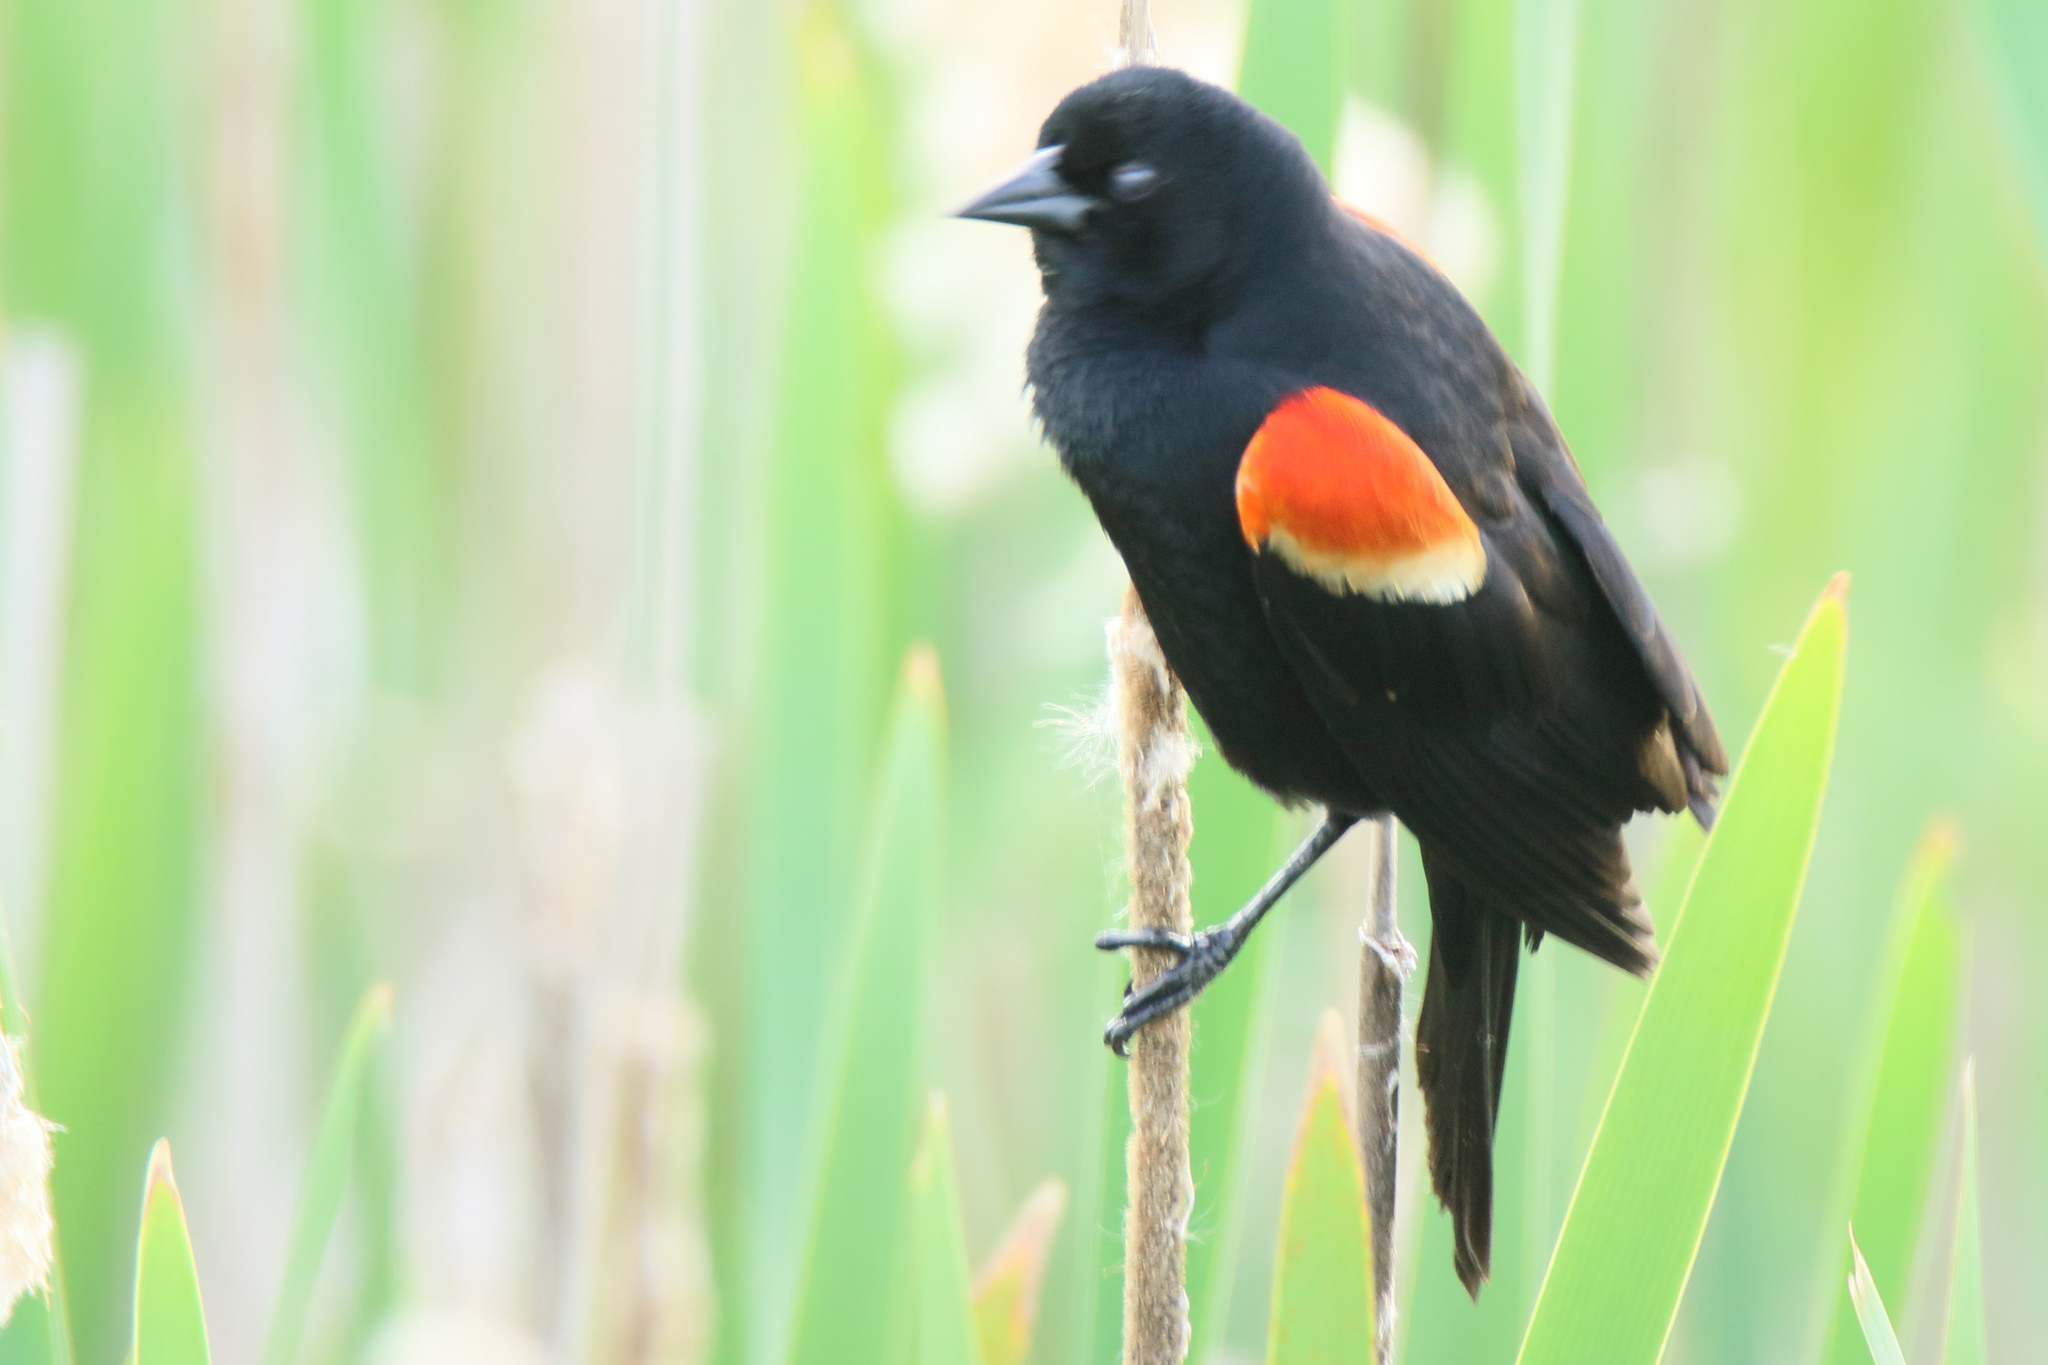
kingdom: Animalia
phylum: Chordata
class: Aves
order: Passeriformes
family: Icteridae
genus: Agelaius
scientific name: Agelaius phoeniceus
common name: Red-winged blackbird
